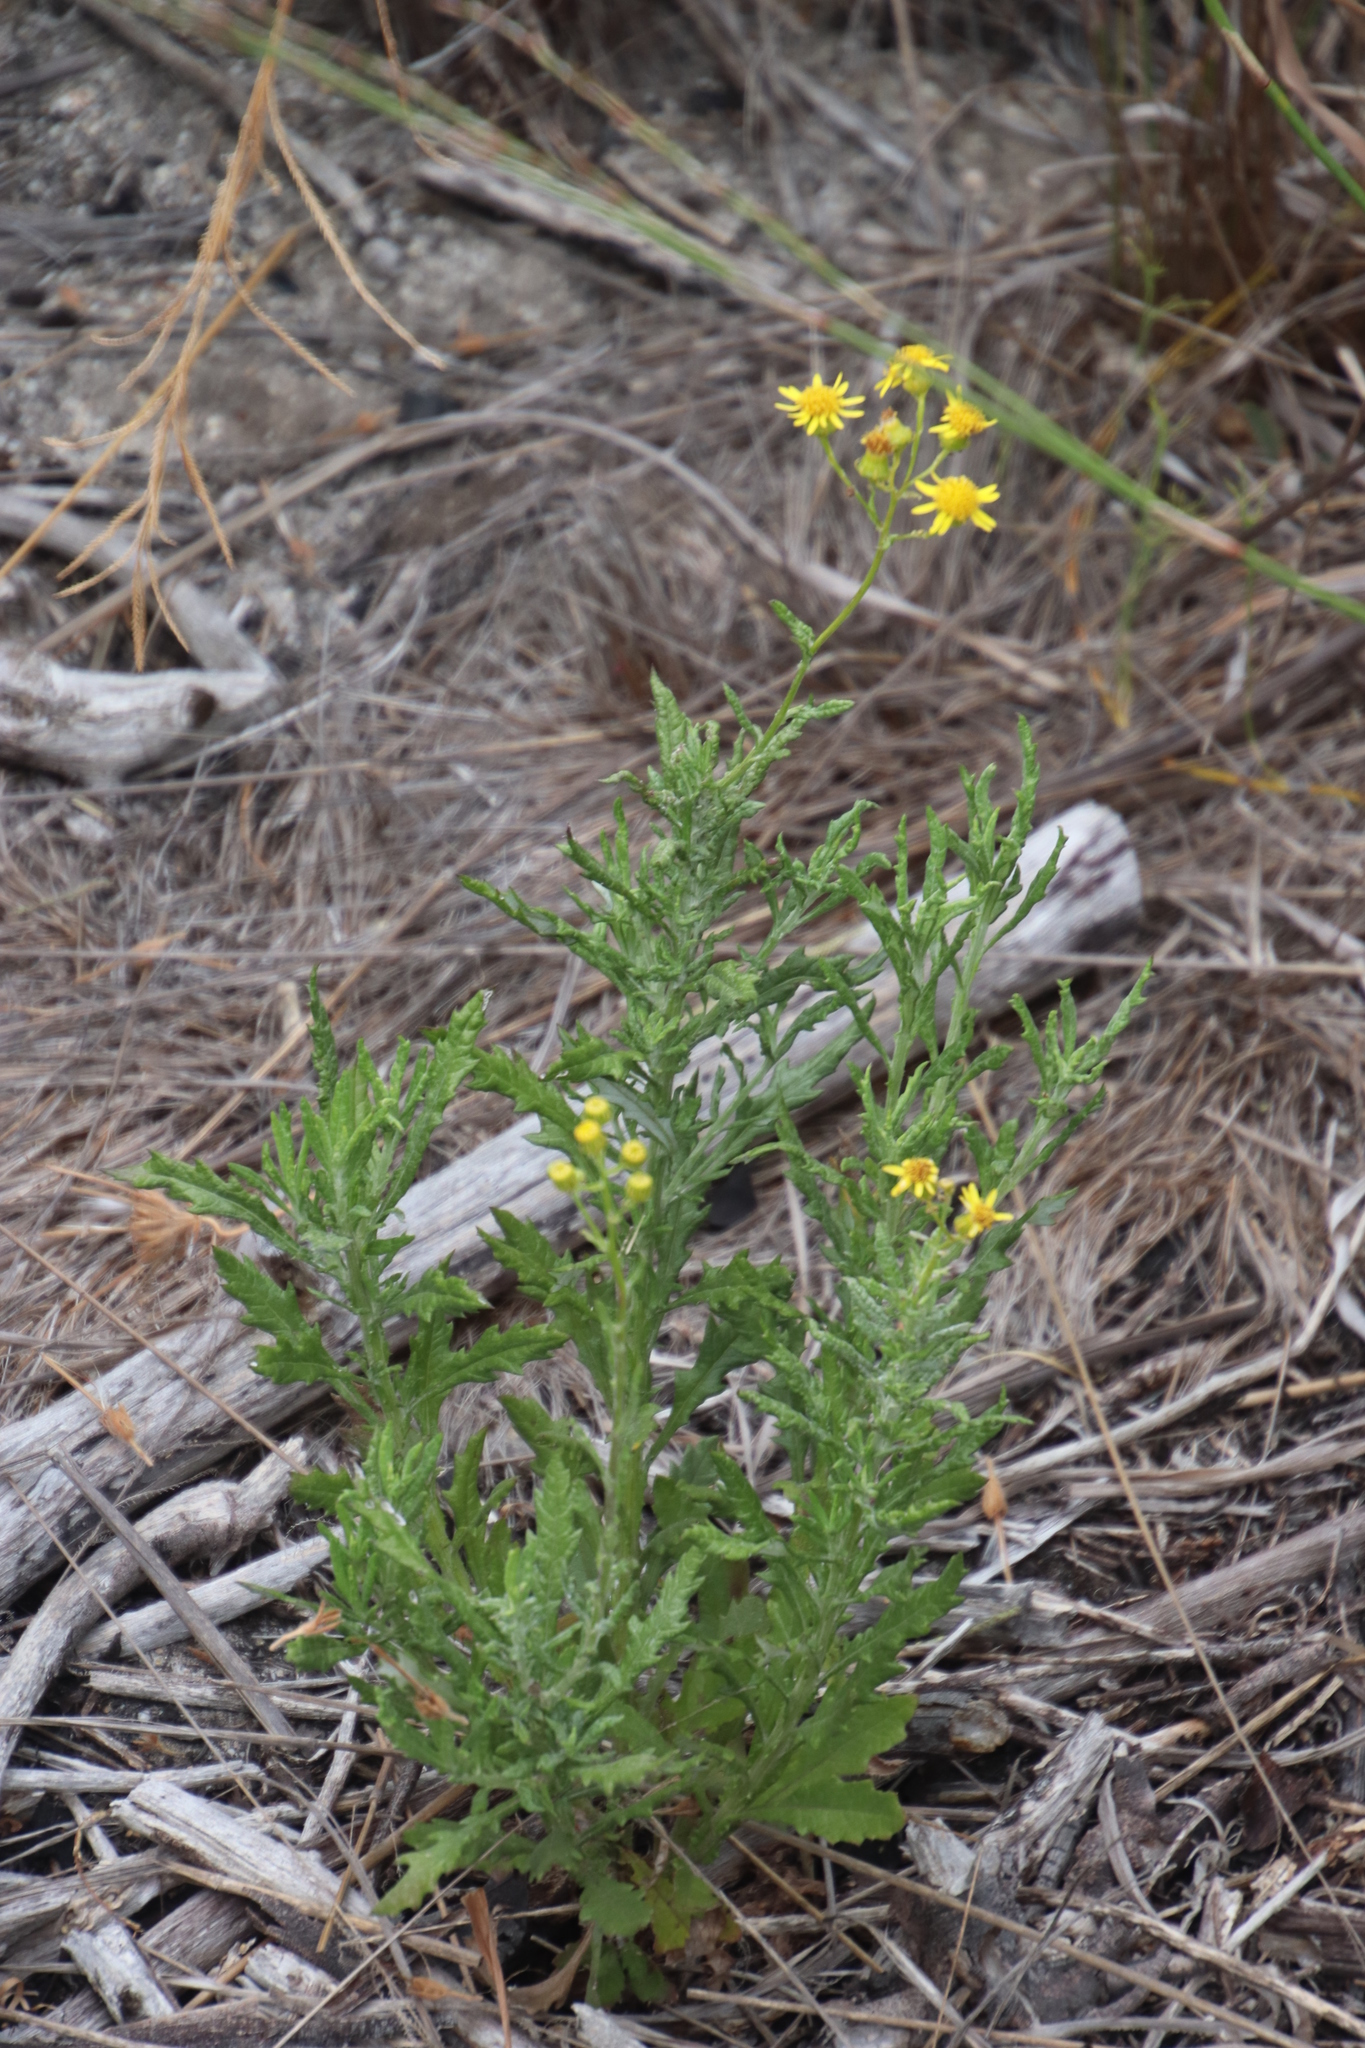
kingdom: Plantae
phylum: Tracheophyta
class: Magnoliopsida
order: Asterales
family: Asteraceae
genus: Senecio
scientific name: Senecio pterophorus
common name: Shoddy ragwort
